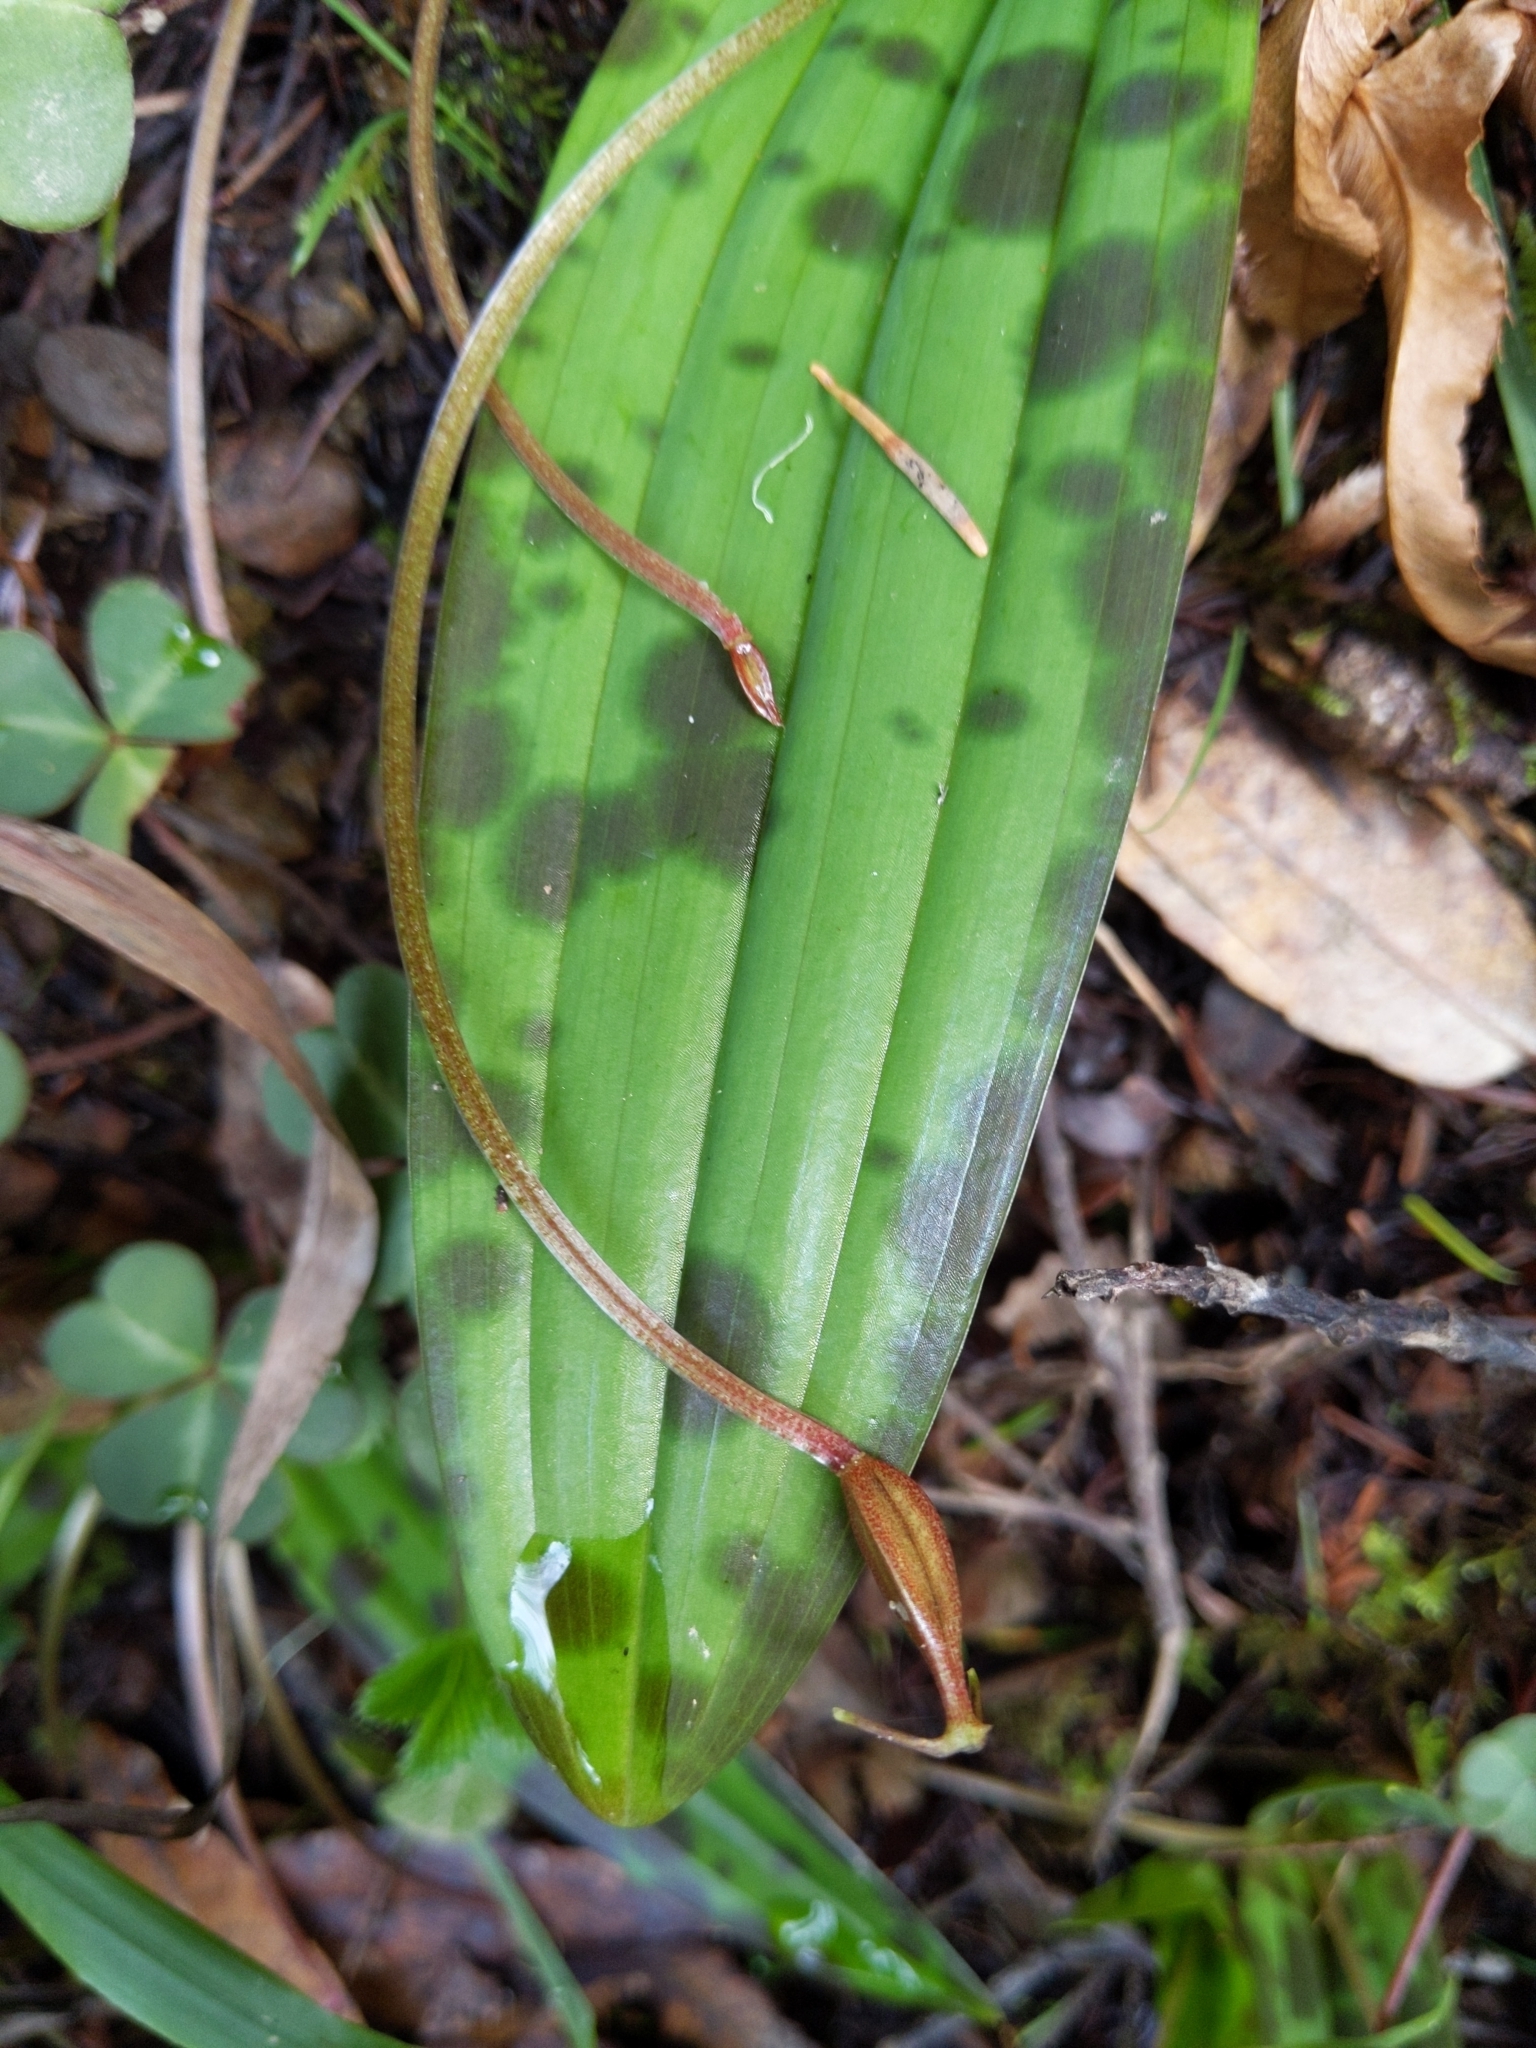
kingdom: Plantae
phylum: Tracheophyta
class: Liliopsida
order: Liliales
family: Liliaceae
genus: Scoliopus
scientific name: Scoliopus bigelovii
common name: Foetid adder's-tongue
